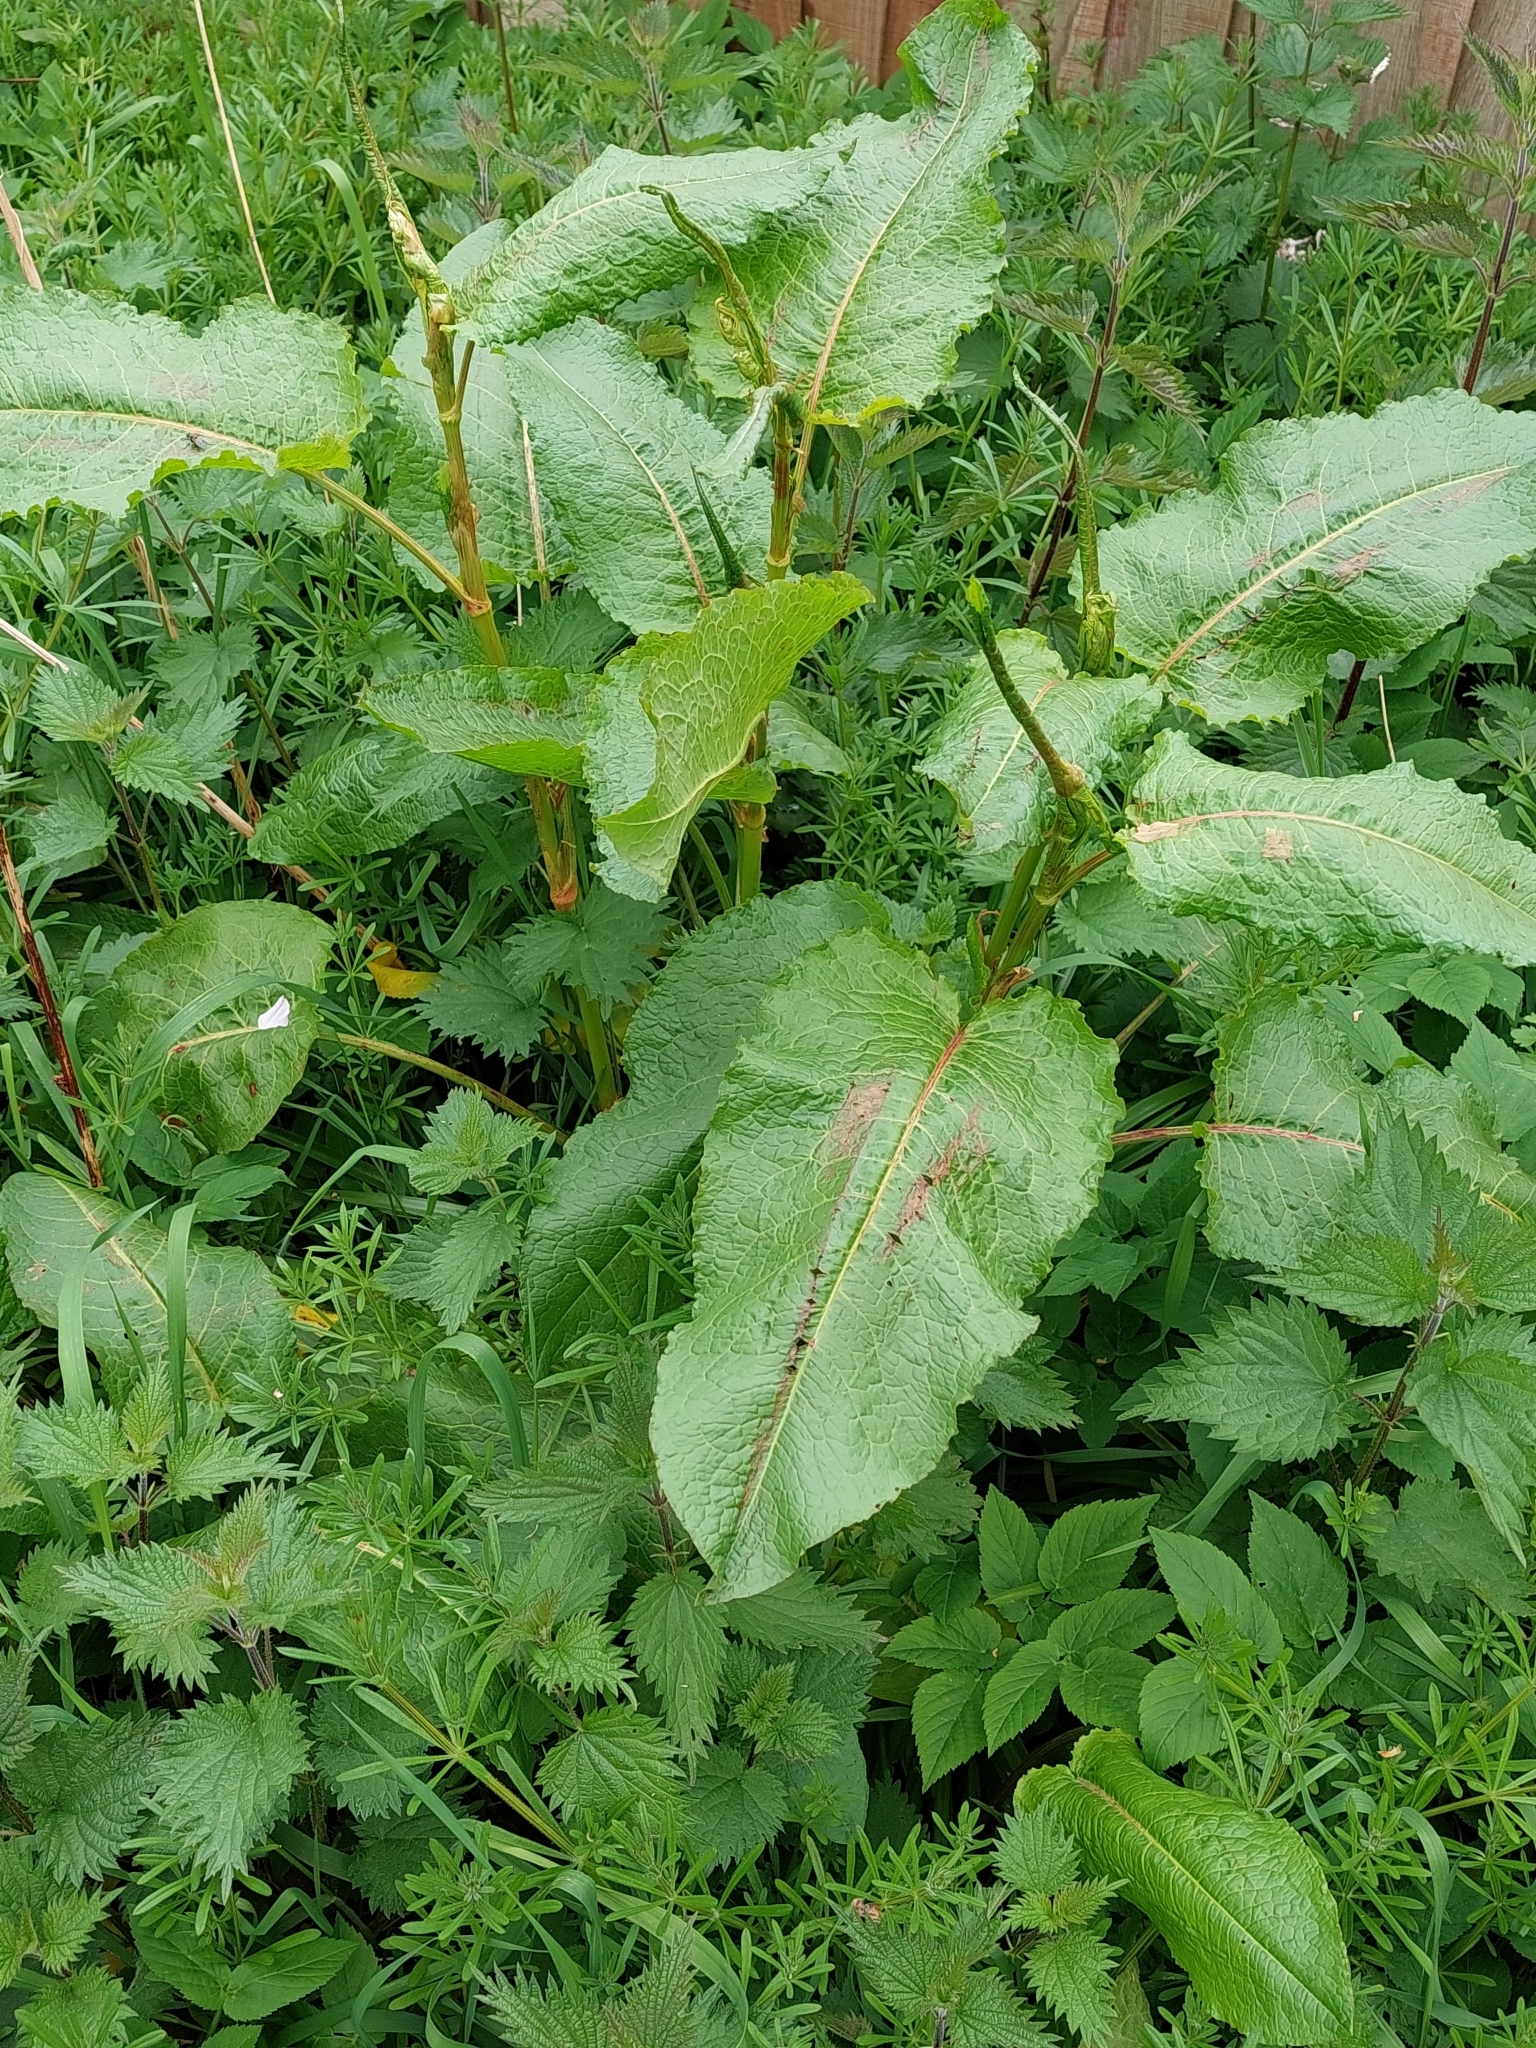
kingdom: Plantae
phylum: Tracheophyta
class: Magnoliopsida
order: Caryophyllales
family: Polygonaceae
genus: Rumex
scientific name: Rumex obtusifolius
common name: Bitter dock
